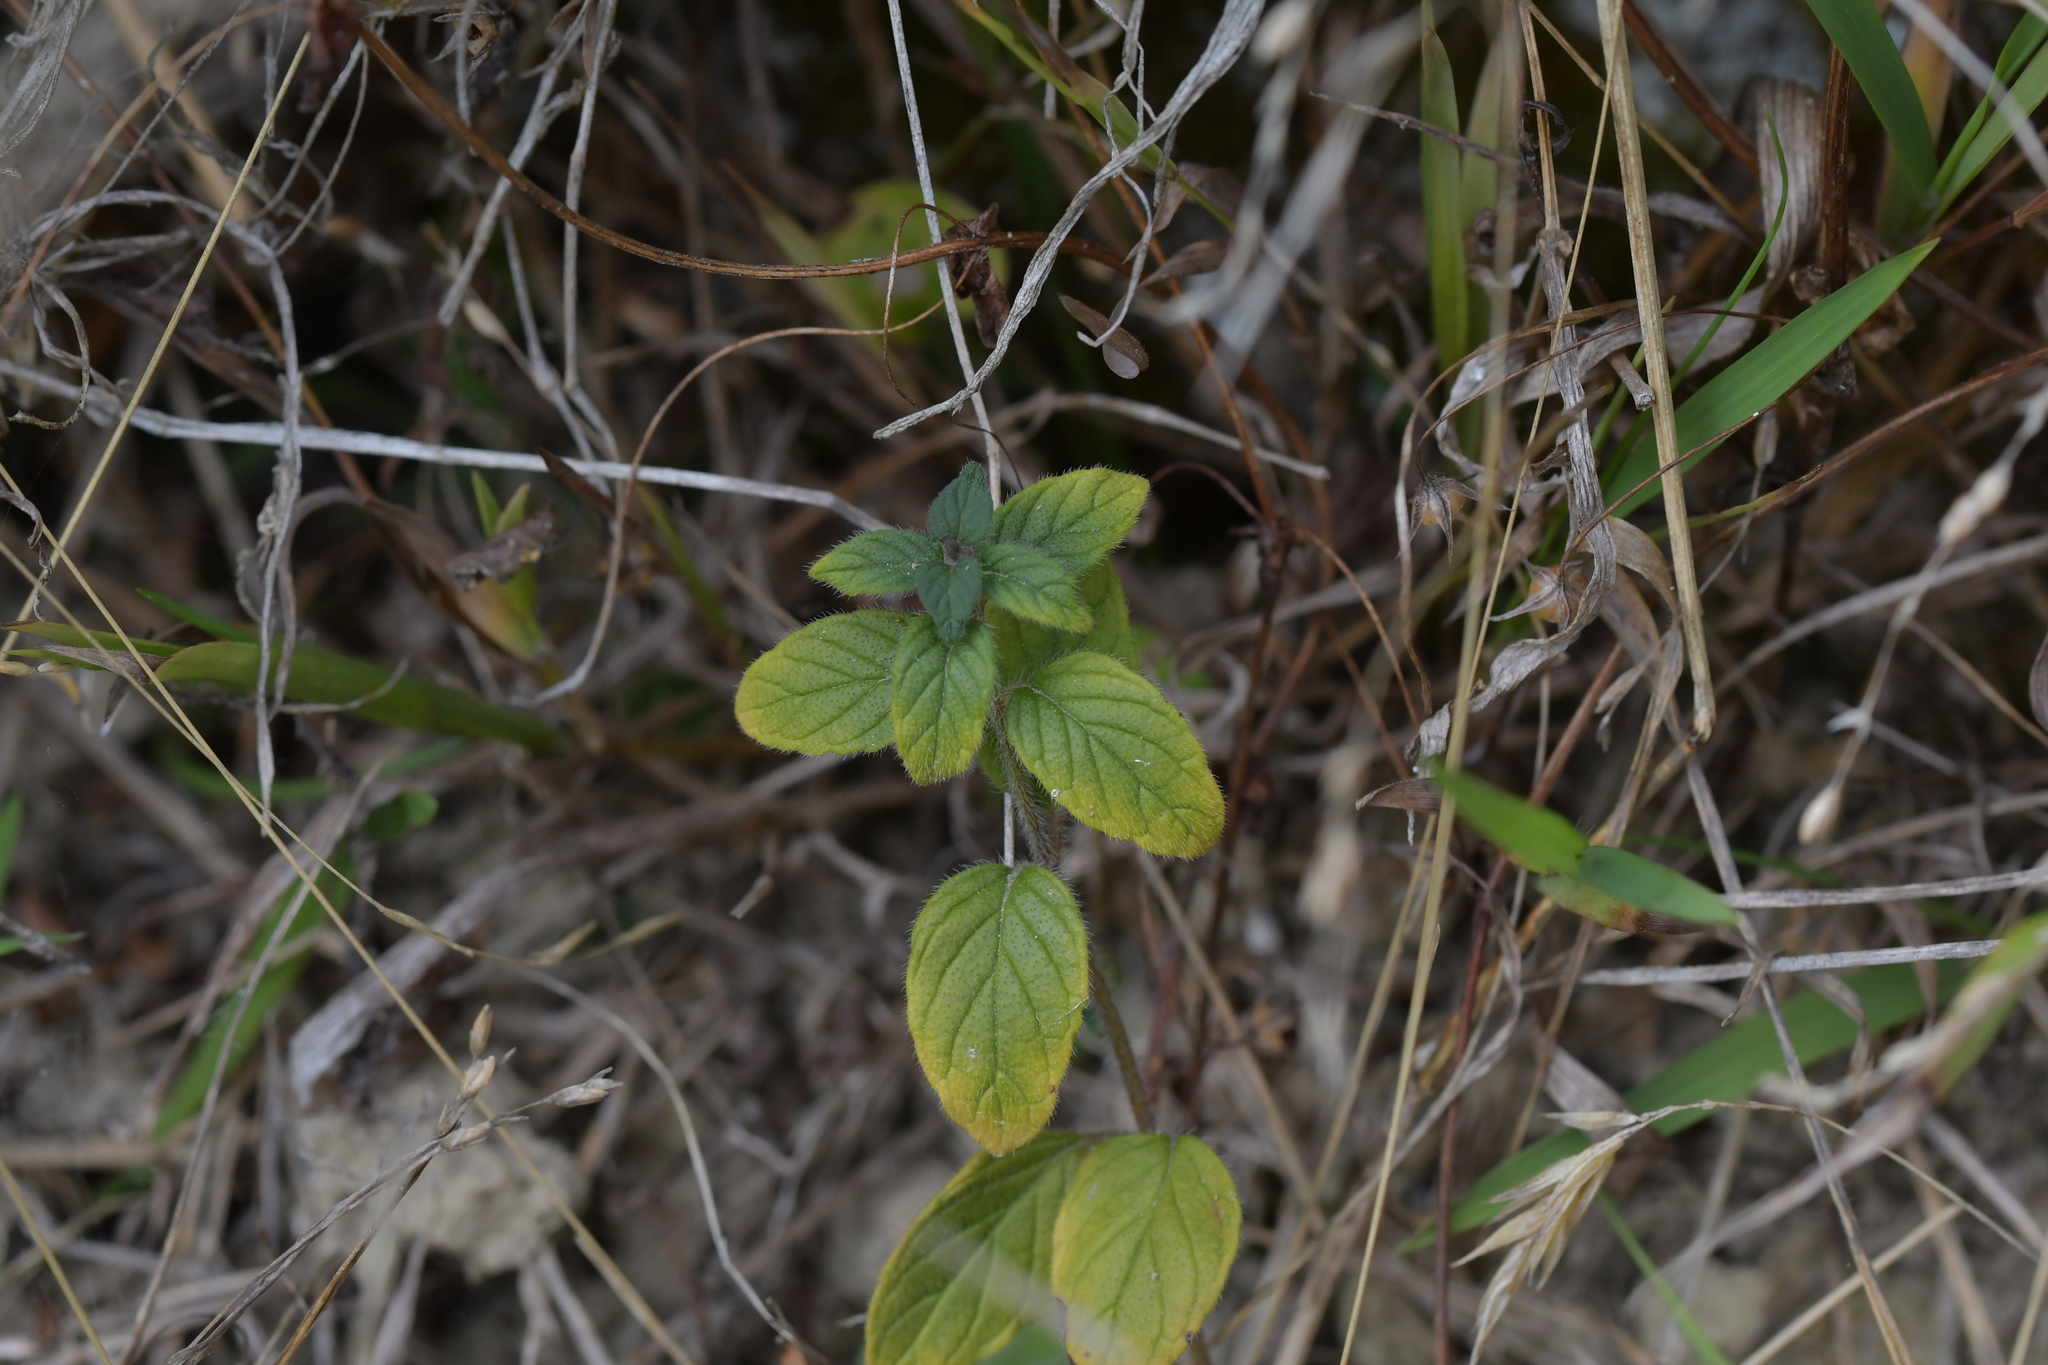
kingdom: Plantae
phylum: Tracheophyta
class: Magnoliopsida
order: Lamiales
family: Lamiaceae
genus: Clinopodium
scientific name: Clinopodium vulgare
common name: Wild basil
